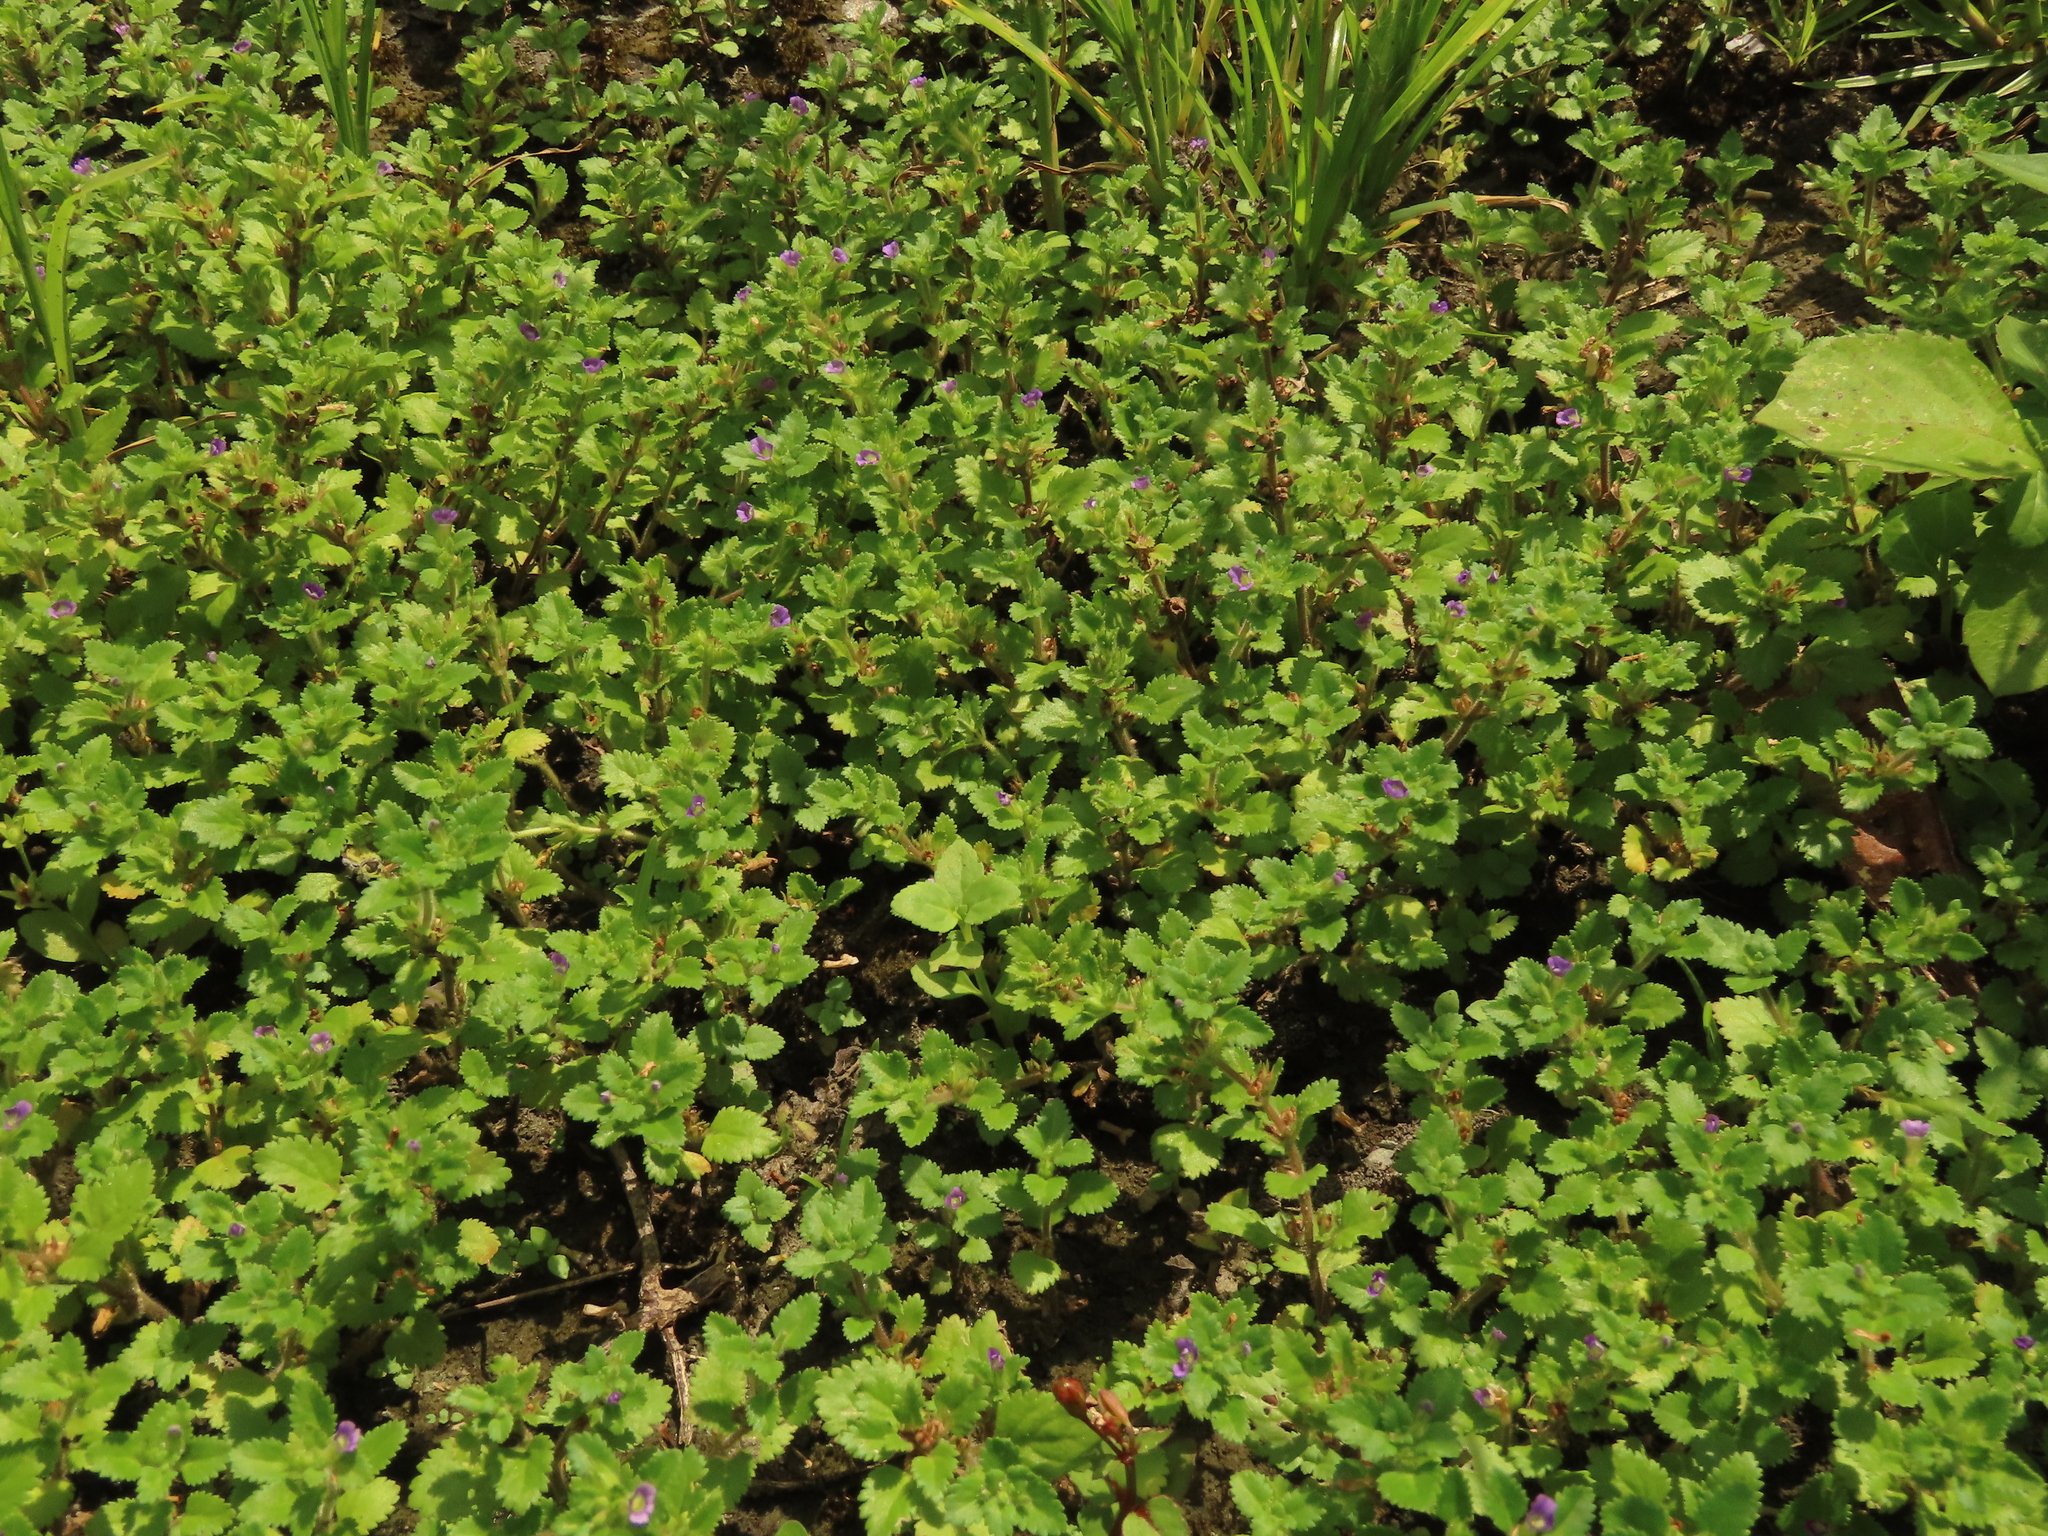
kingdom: Plantae
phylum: Tracheophyta
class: Magnoliopsida
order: Lamiales
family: Plantaginaceae
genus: Stemodia
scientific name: Stemodia verticillata
